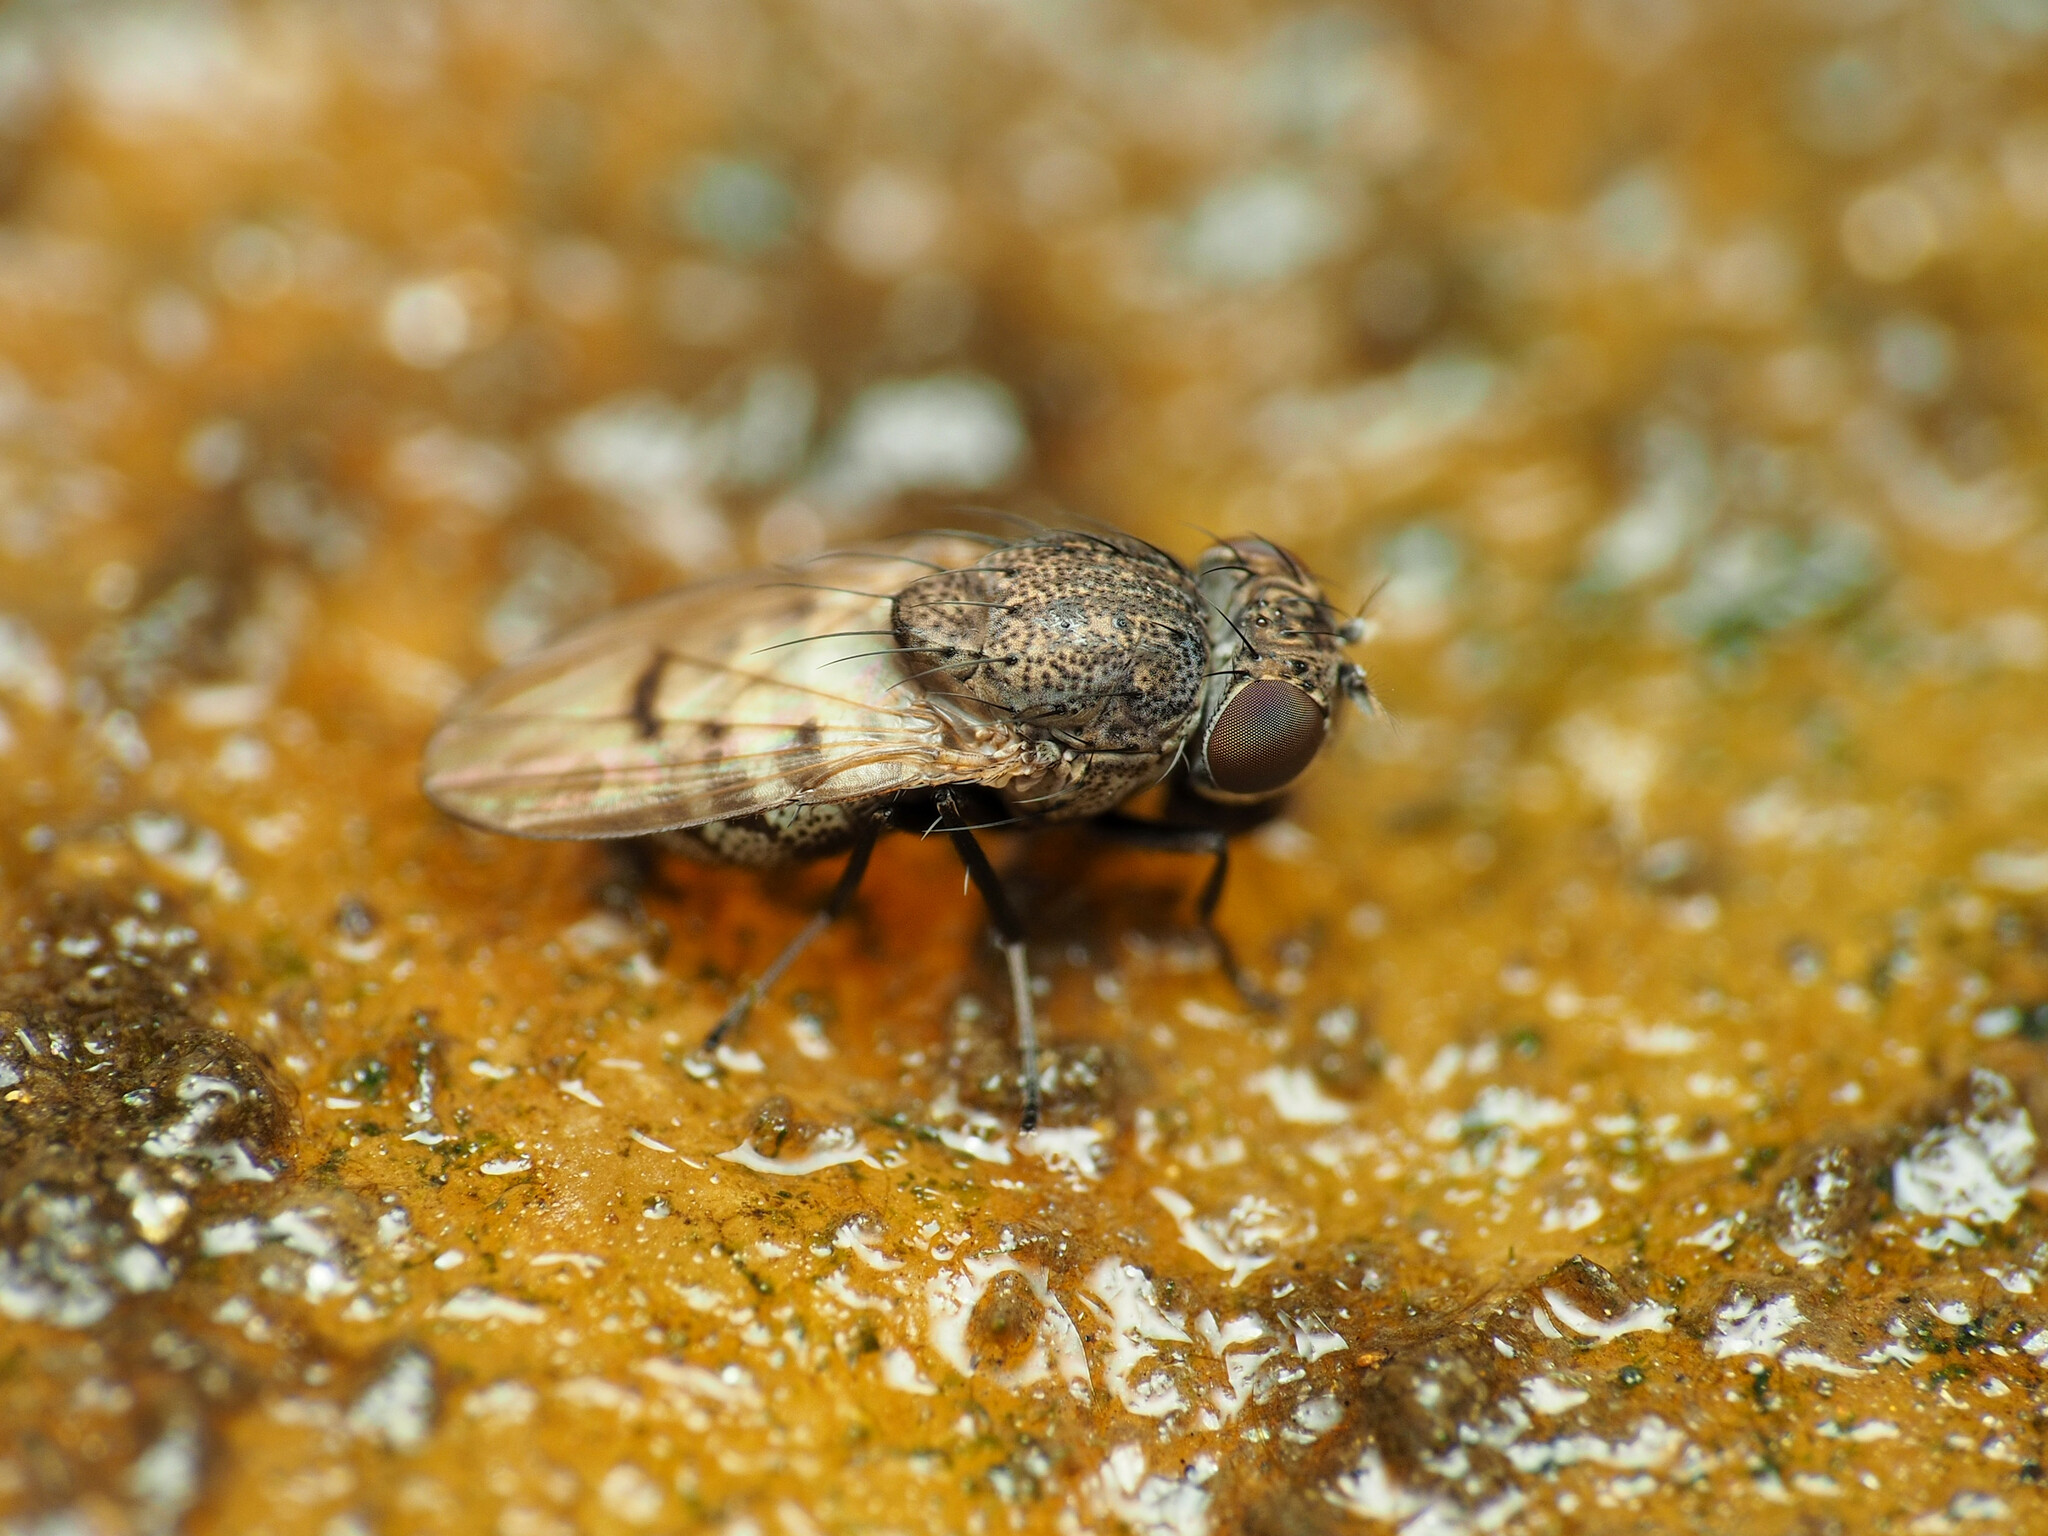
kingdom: Animalia
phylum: Arthropoda
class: Insecta
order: Diptera
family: Ephydridae
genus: Paralimna
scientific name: Paralimna punctipennis
